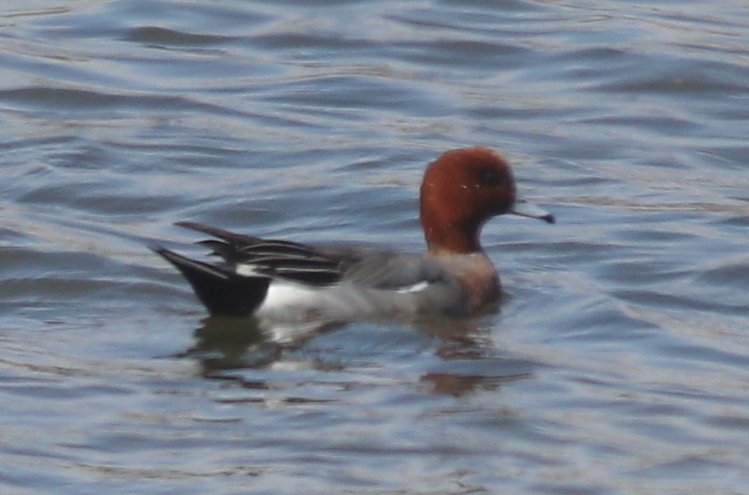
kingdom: Animalia
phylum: Chordata
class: Aves
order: Anseriformes
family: Anatidae
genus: Mareca
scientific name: Mareca penelope
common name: Eurasian wigeon
